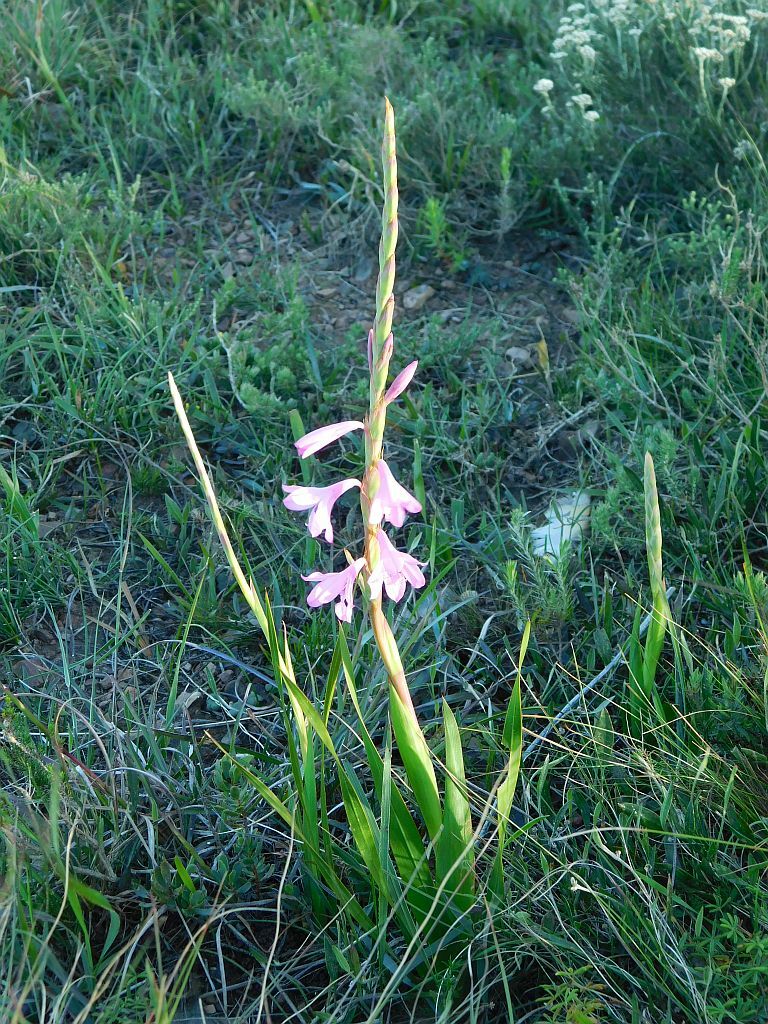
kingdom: Plantae
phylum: Tracheophyta
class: Liliopsida
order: Asparagales
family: Iridaceae
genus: Watsonia
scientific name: Watsonia laccata
